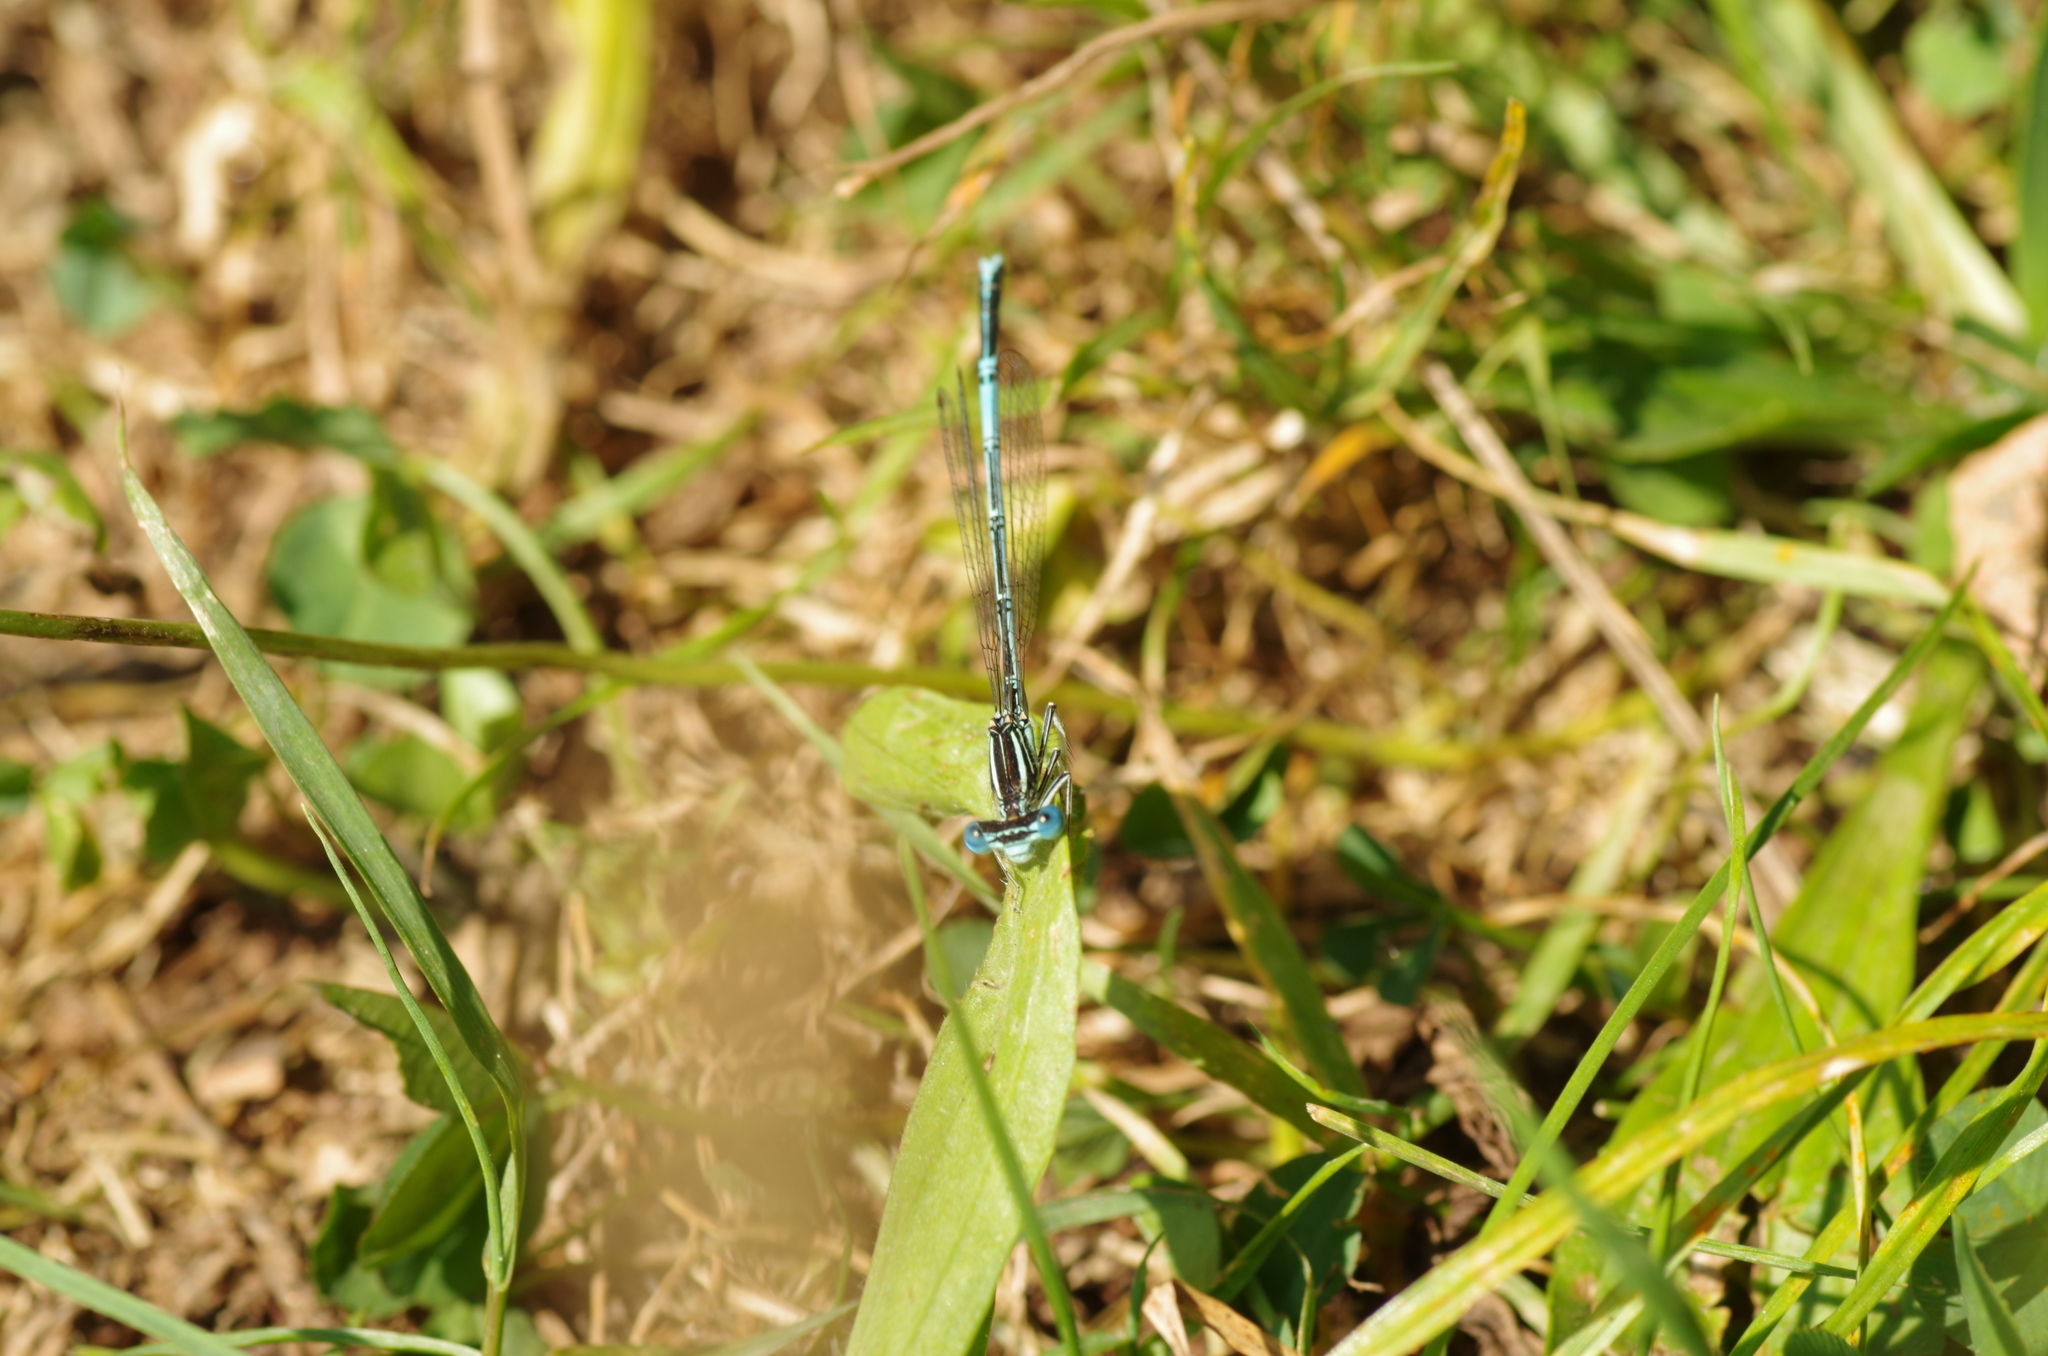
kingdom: Animalia
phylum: Arthropoda
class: Insecta
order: Odonata
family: Platycnemididae
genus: Platycnemis
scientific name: Platycnemis pennipes
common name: White-legged damselfly
